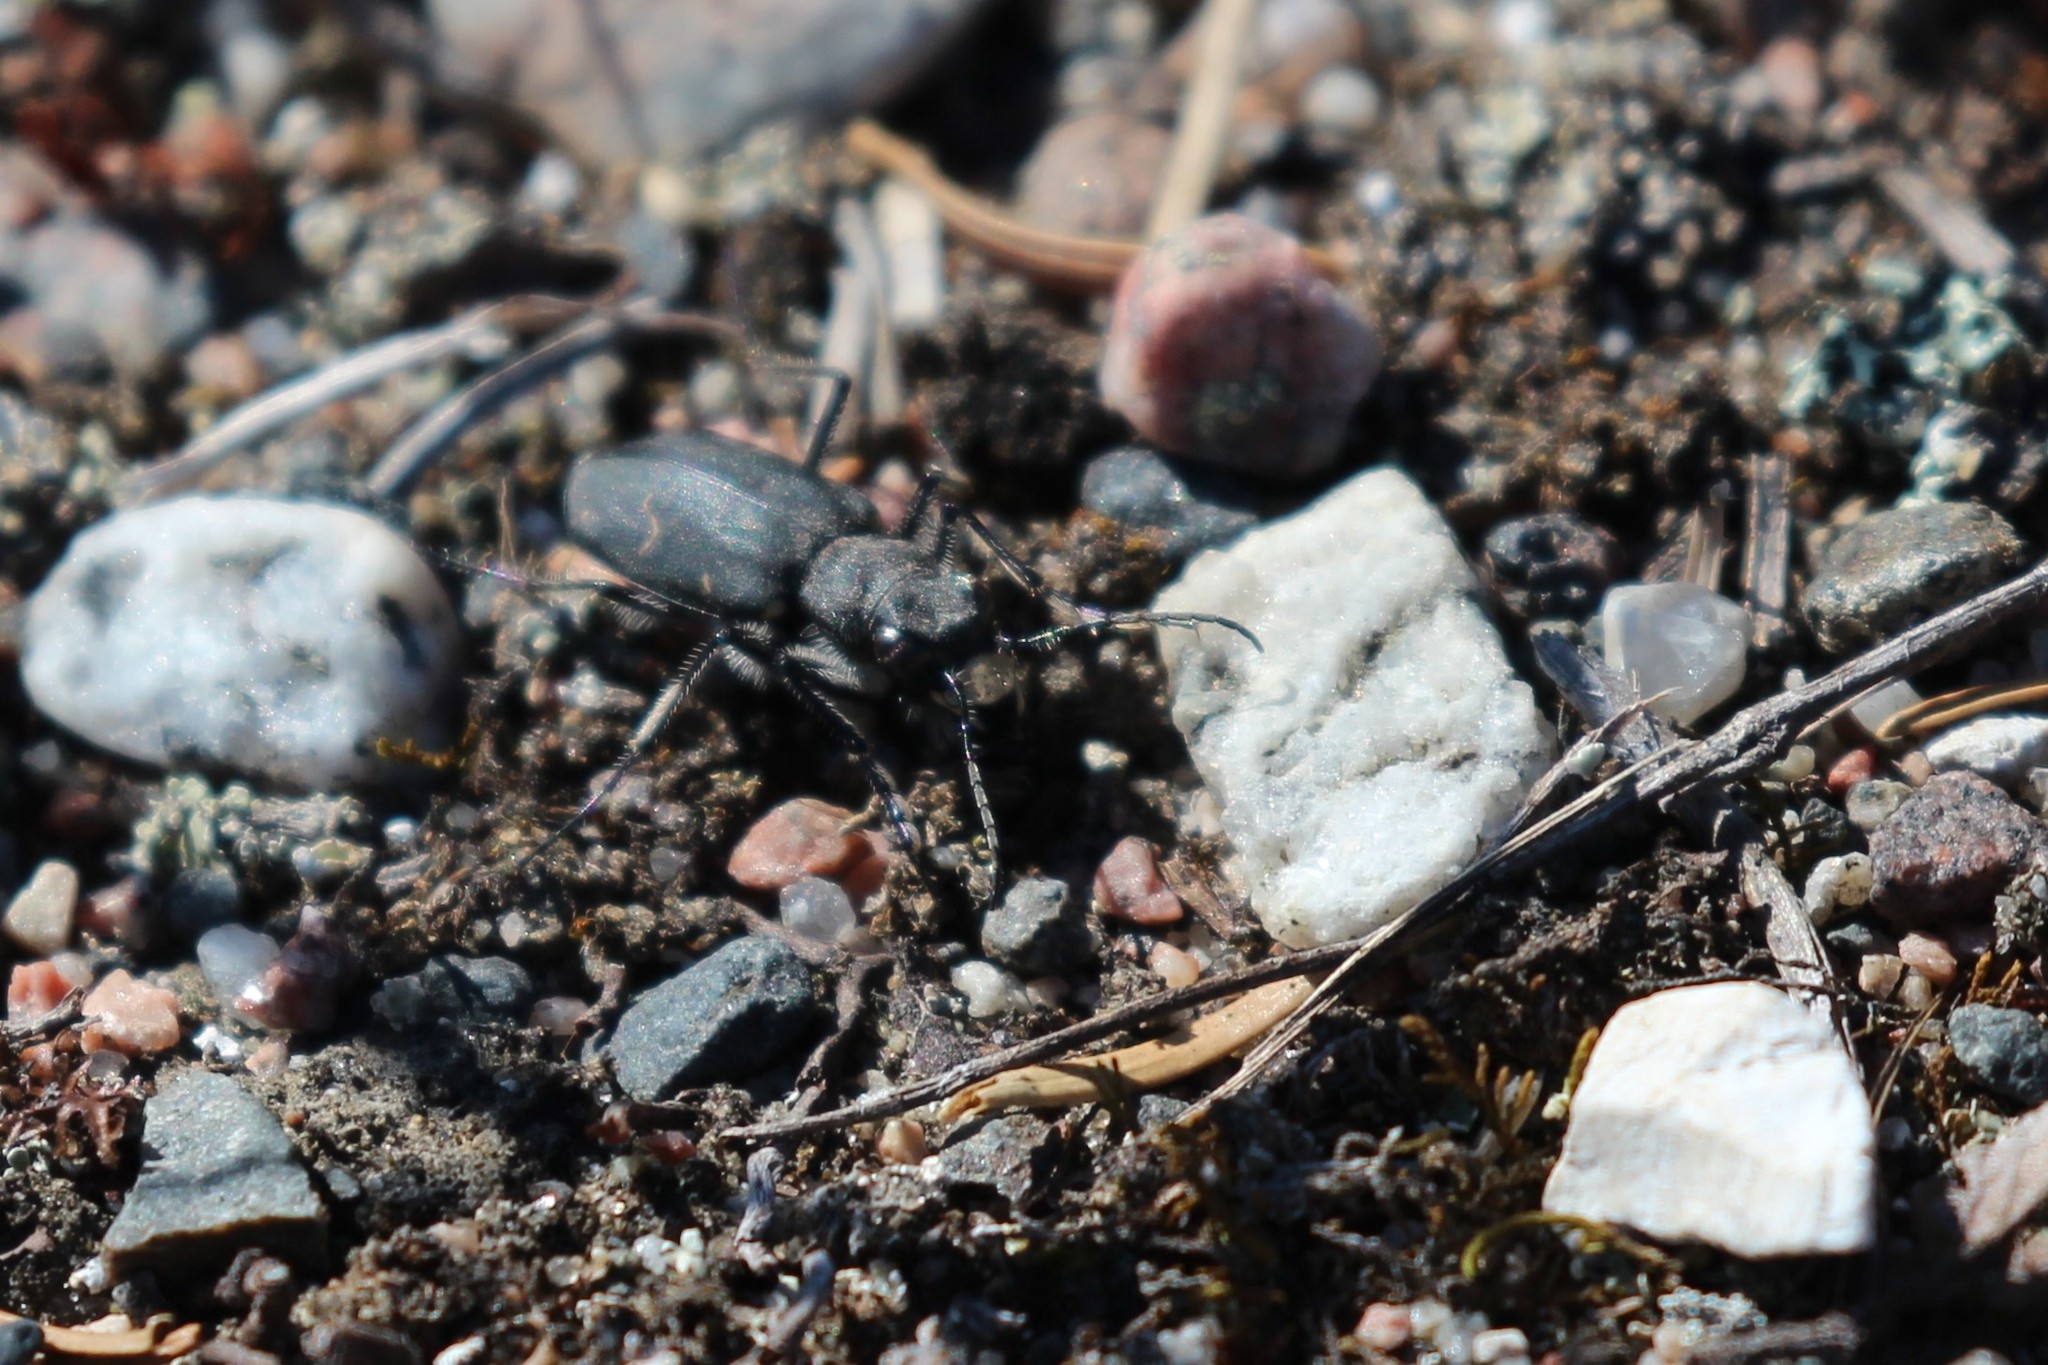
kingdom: Animalia
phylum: Arthropoda
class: Insecta
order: Coleoptera
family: Carabidae
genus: Cicindela
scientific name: Cicindela longilabris
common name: Boreal long-lipped tiger beetle
